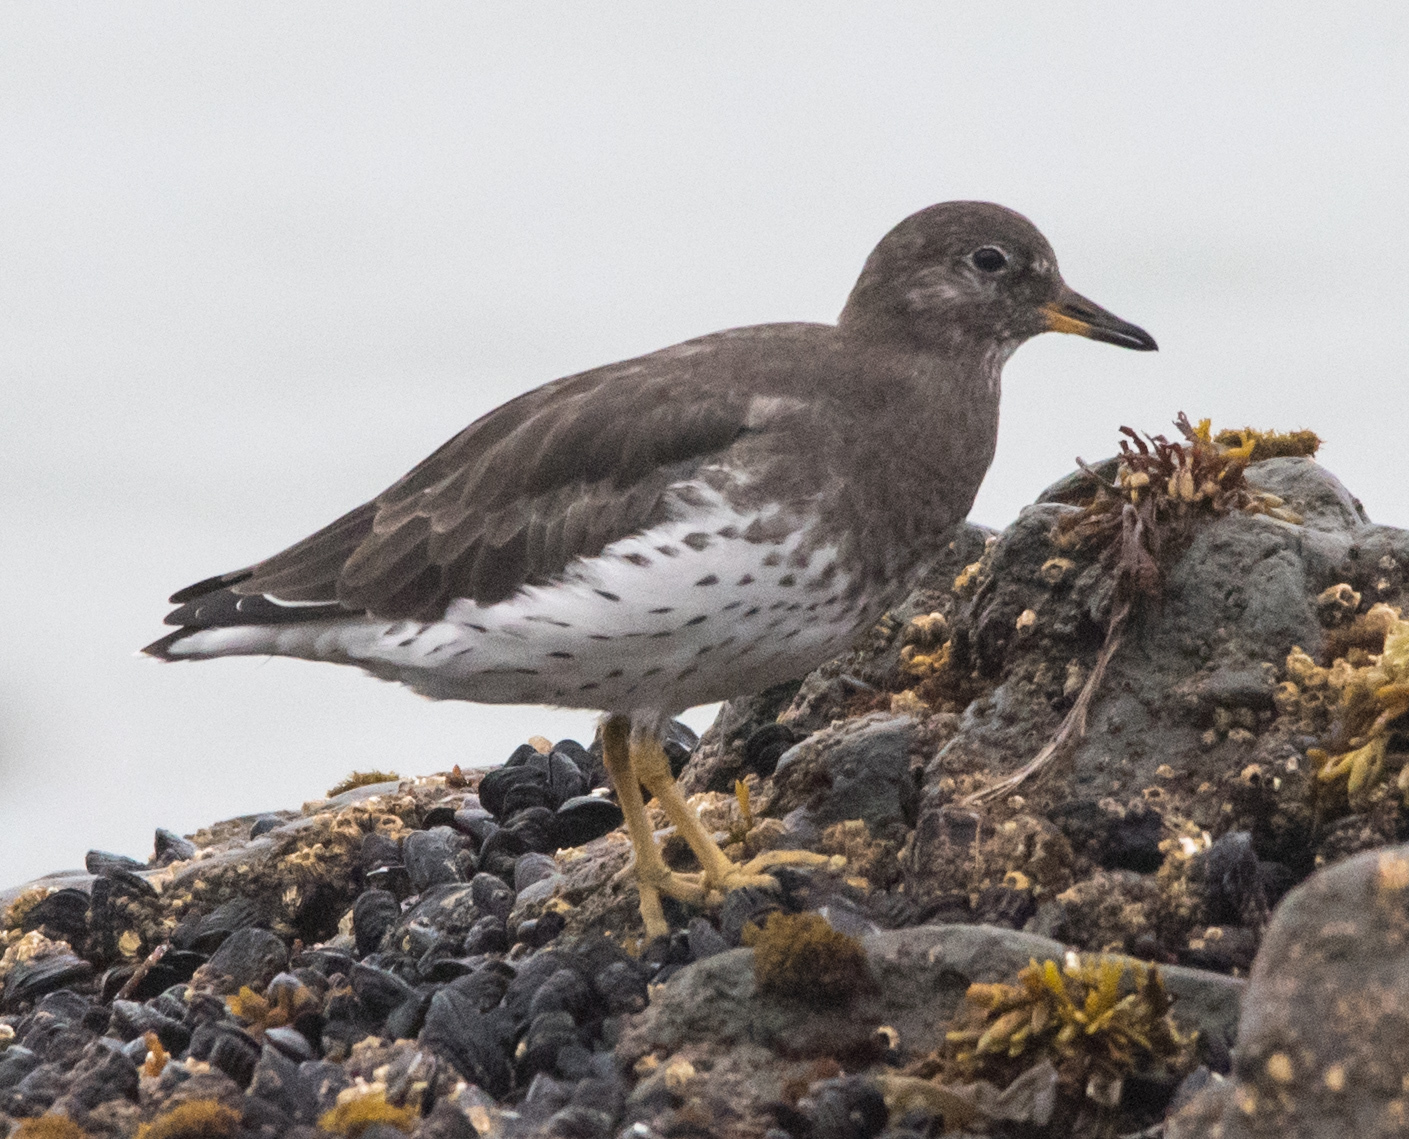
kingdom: Animalia
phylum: Chordata
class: Aves
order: Charadriiformes
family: Scolopacidae
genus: Calidris
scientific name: Calidris virgata
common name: Surfbird
